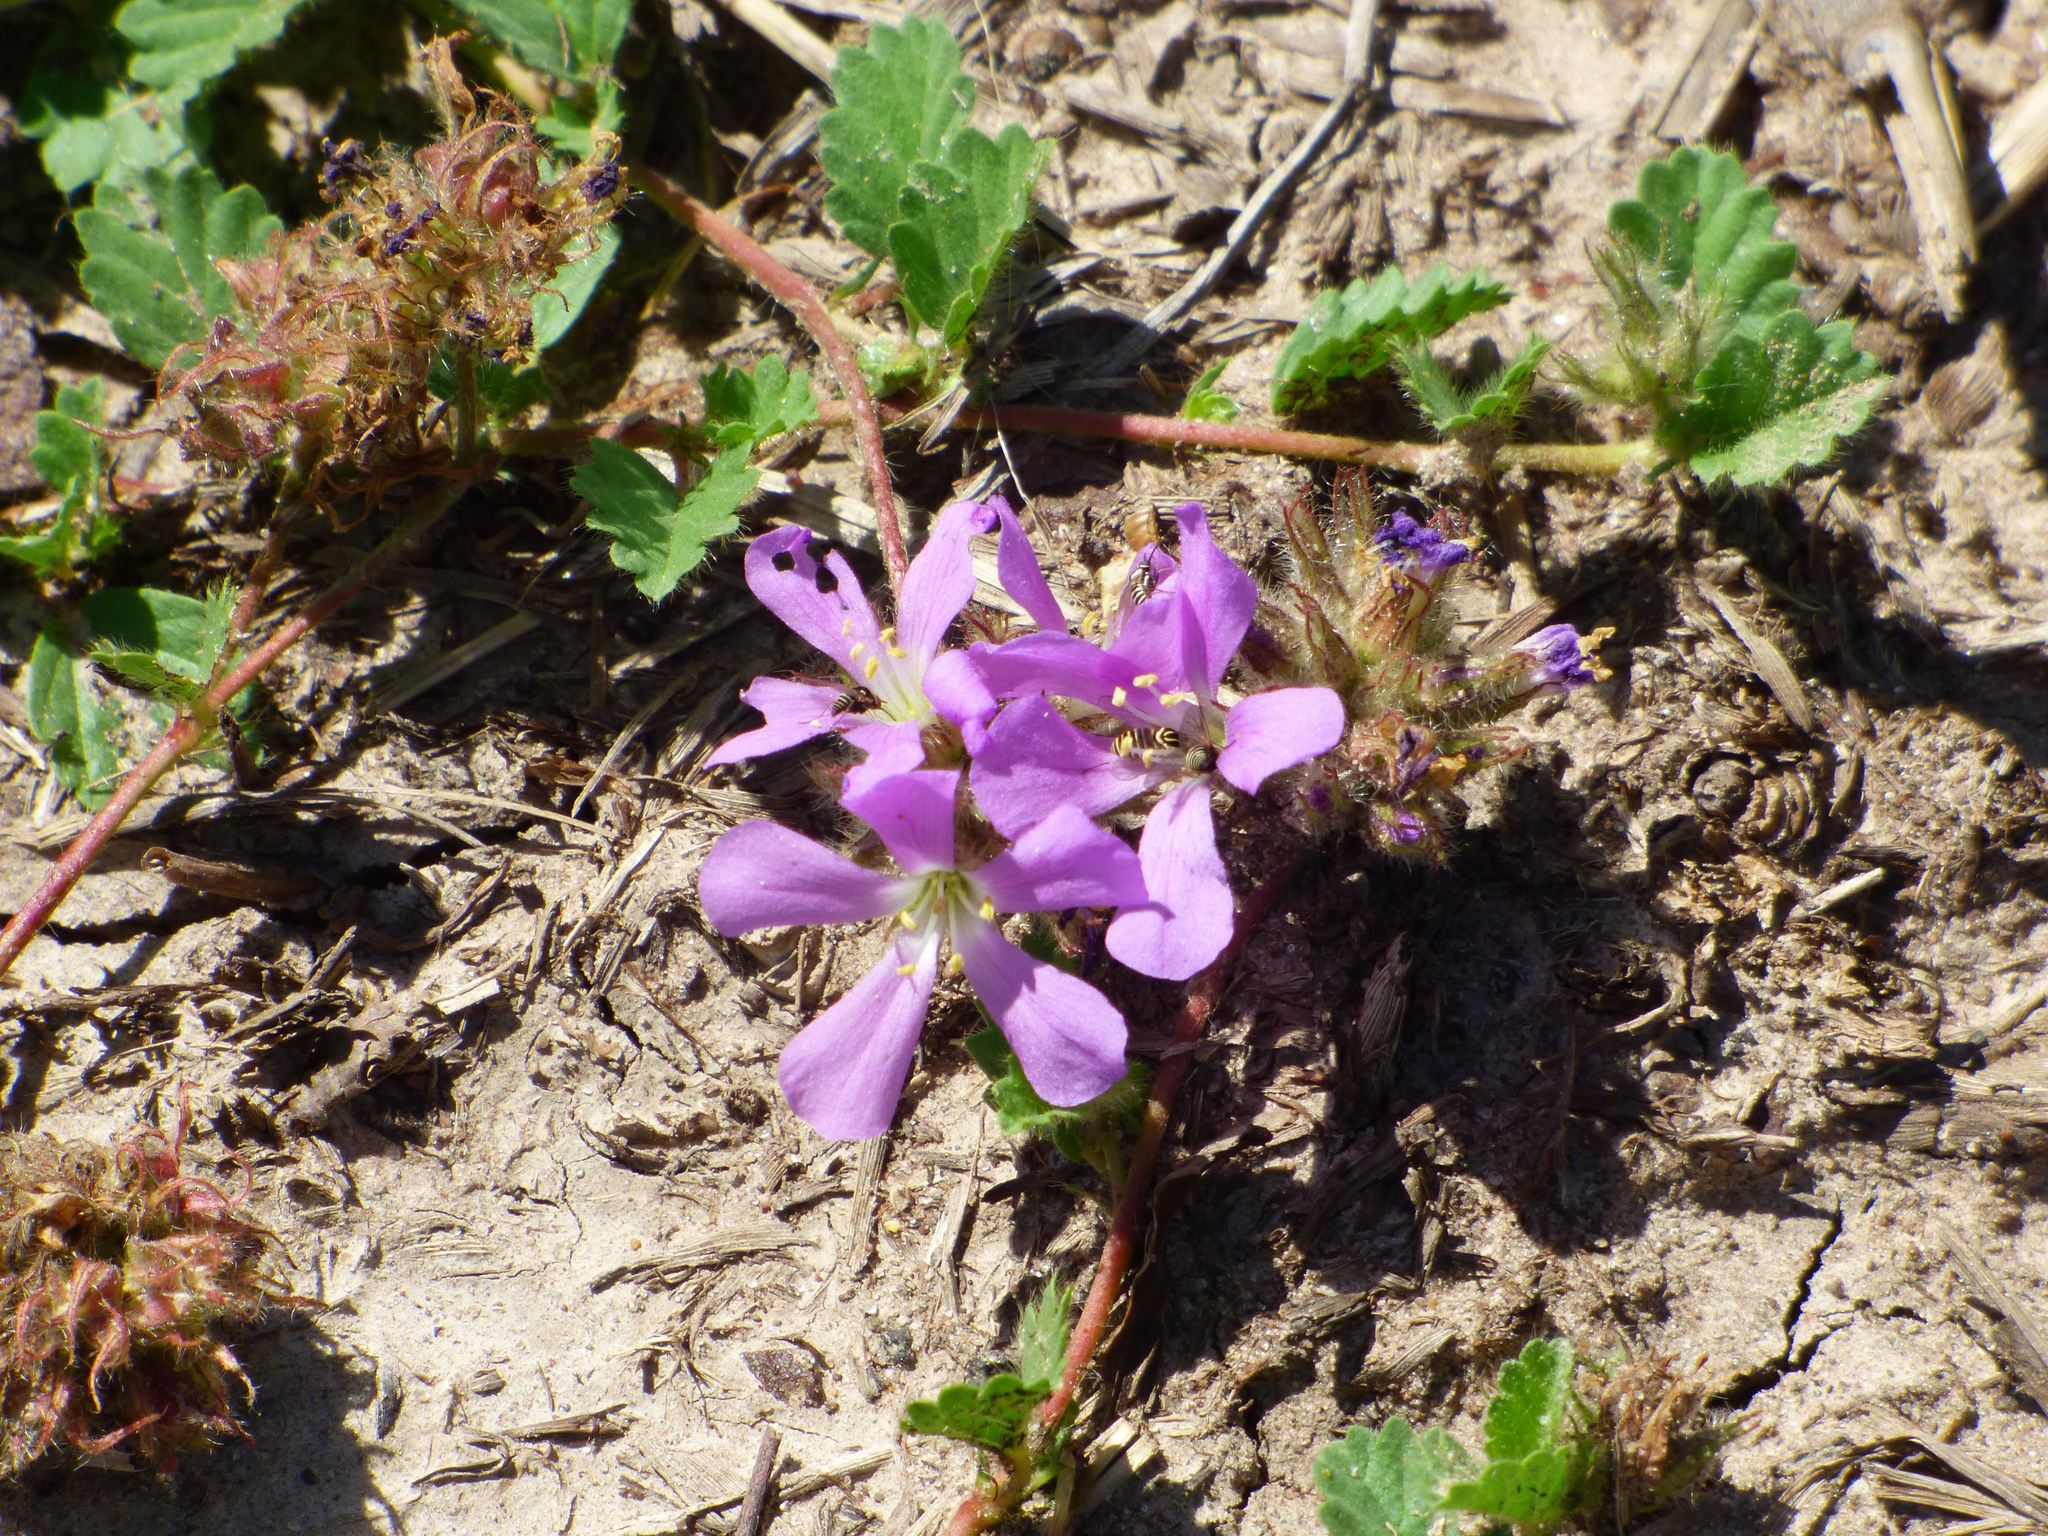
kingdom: Plantae
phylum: Tracheophyta
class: Magnoliopsida
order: Malvales
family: Malvaceae
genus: Melochia
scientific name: Melochia hermannioides
